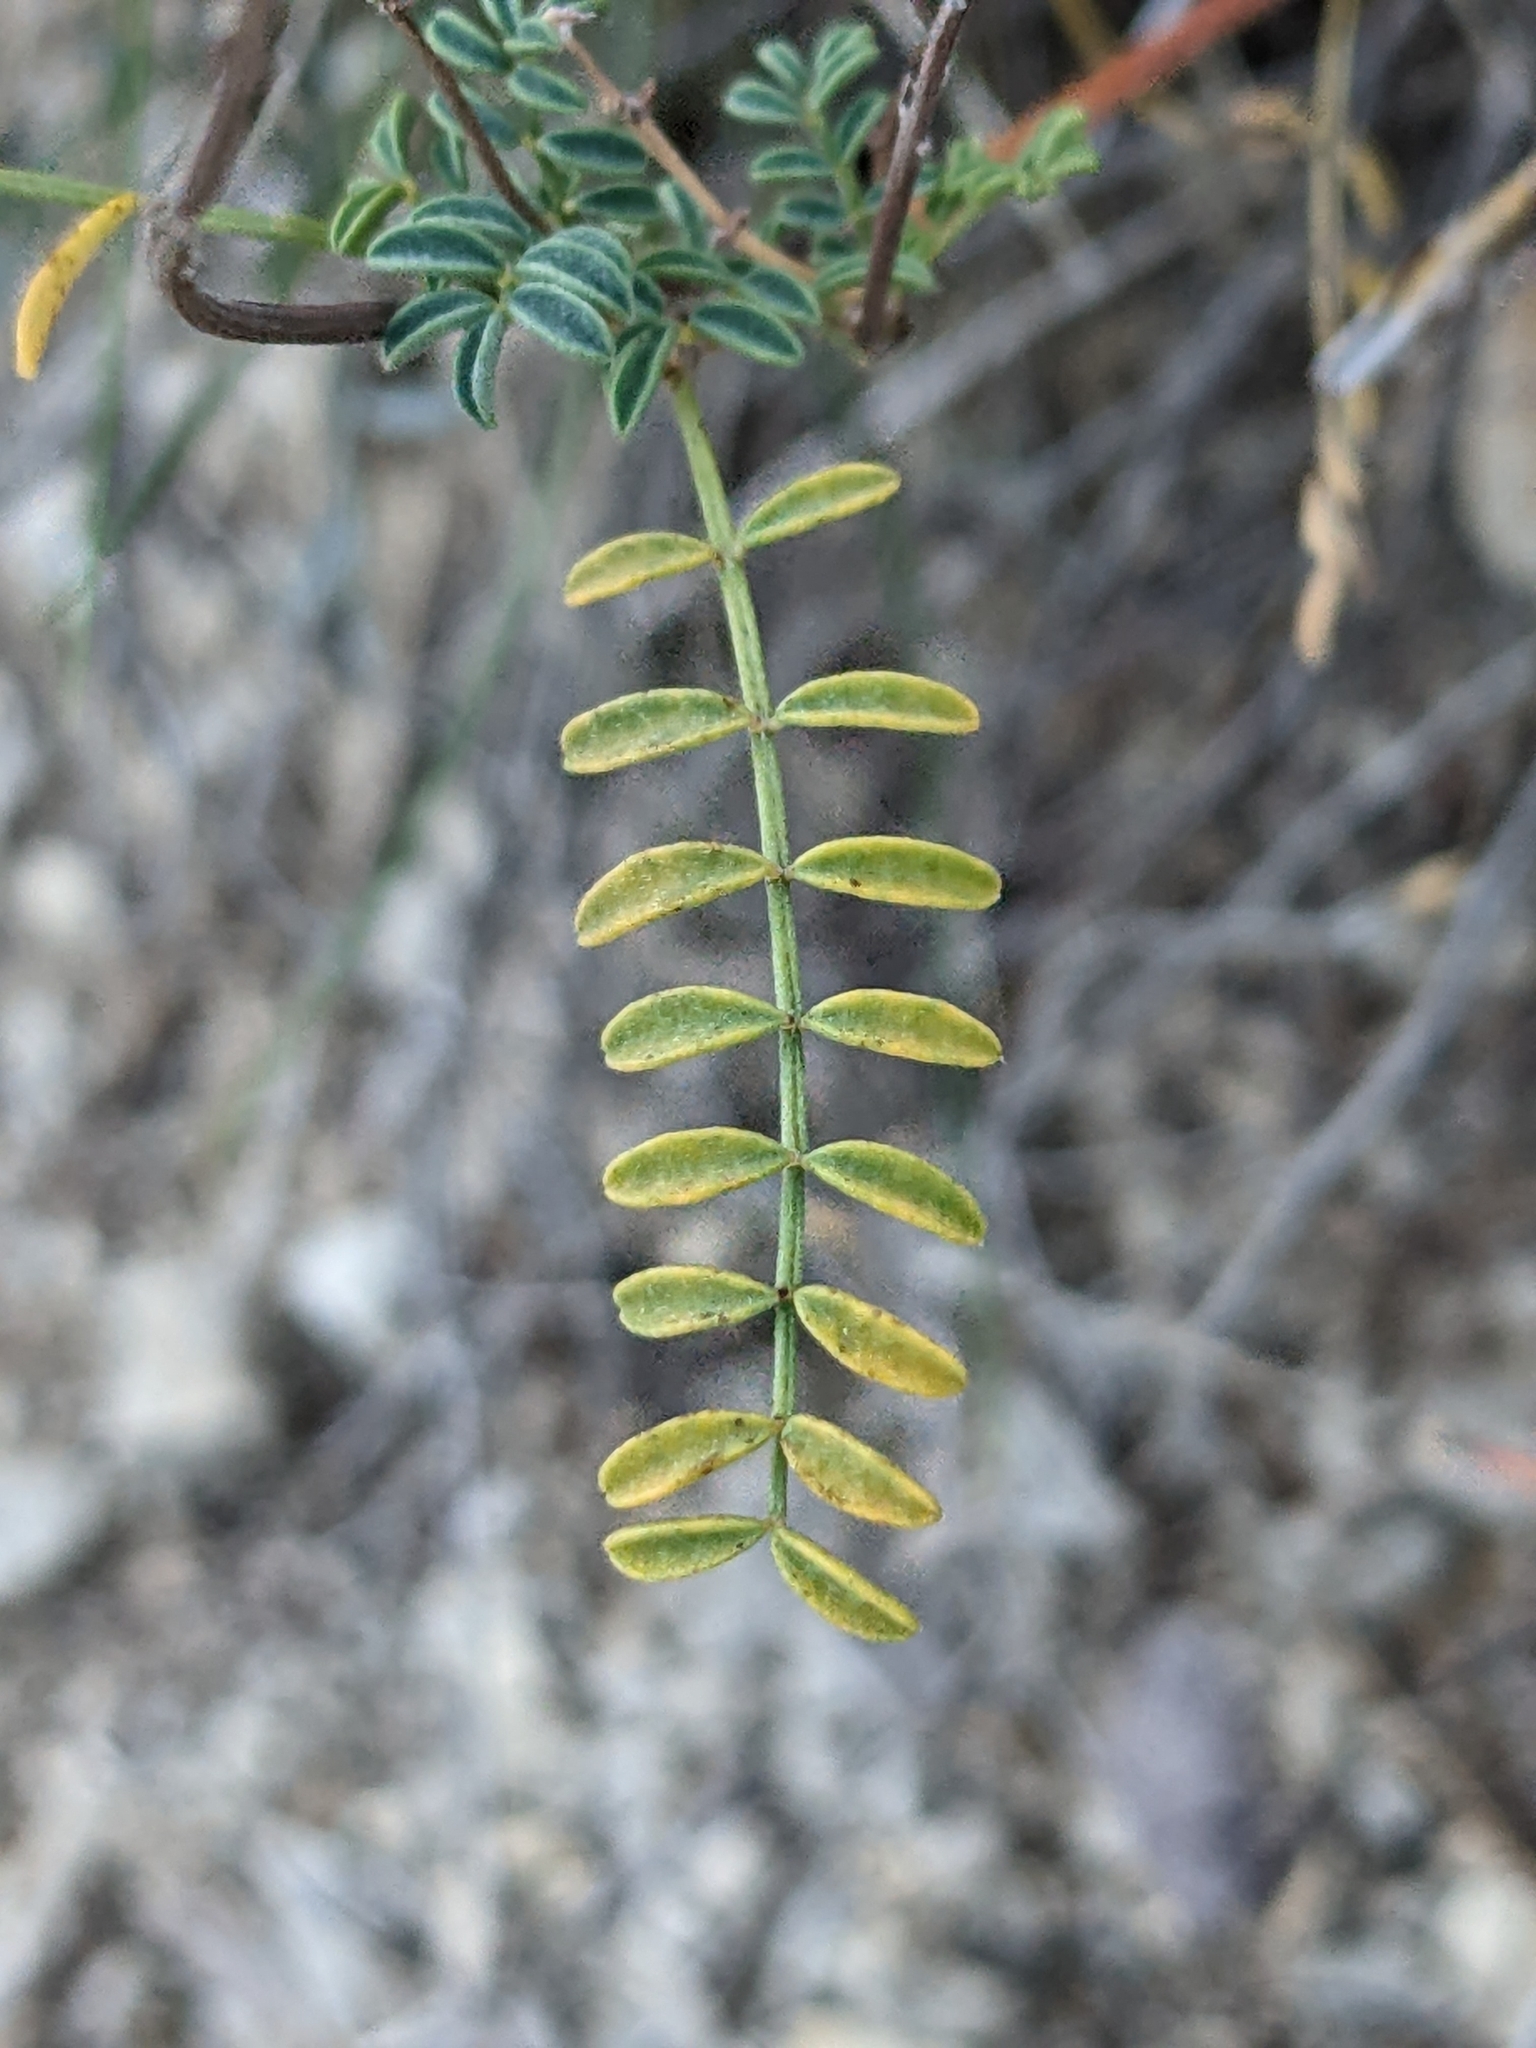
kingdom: Plantae
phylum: Tracheophyta
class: Magnoliopsida
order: Fabales
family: Fabaceae
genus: Hedysarum
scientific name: Hedysarum boveanum
